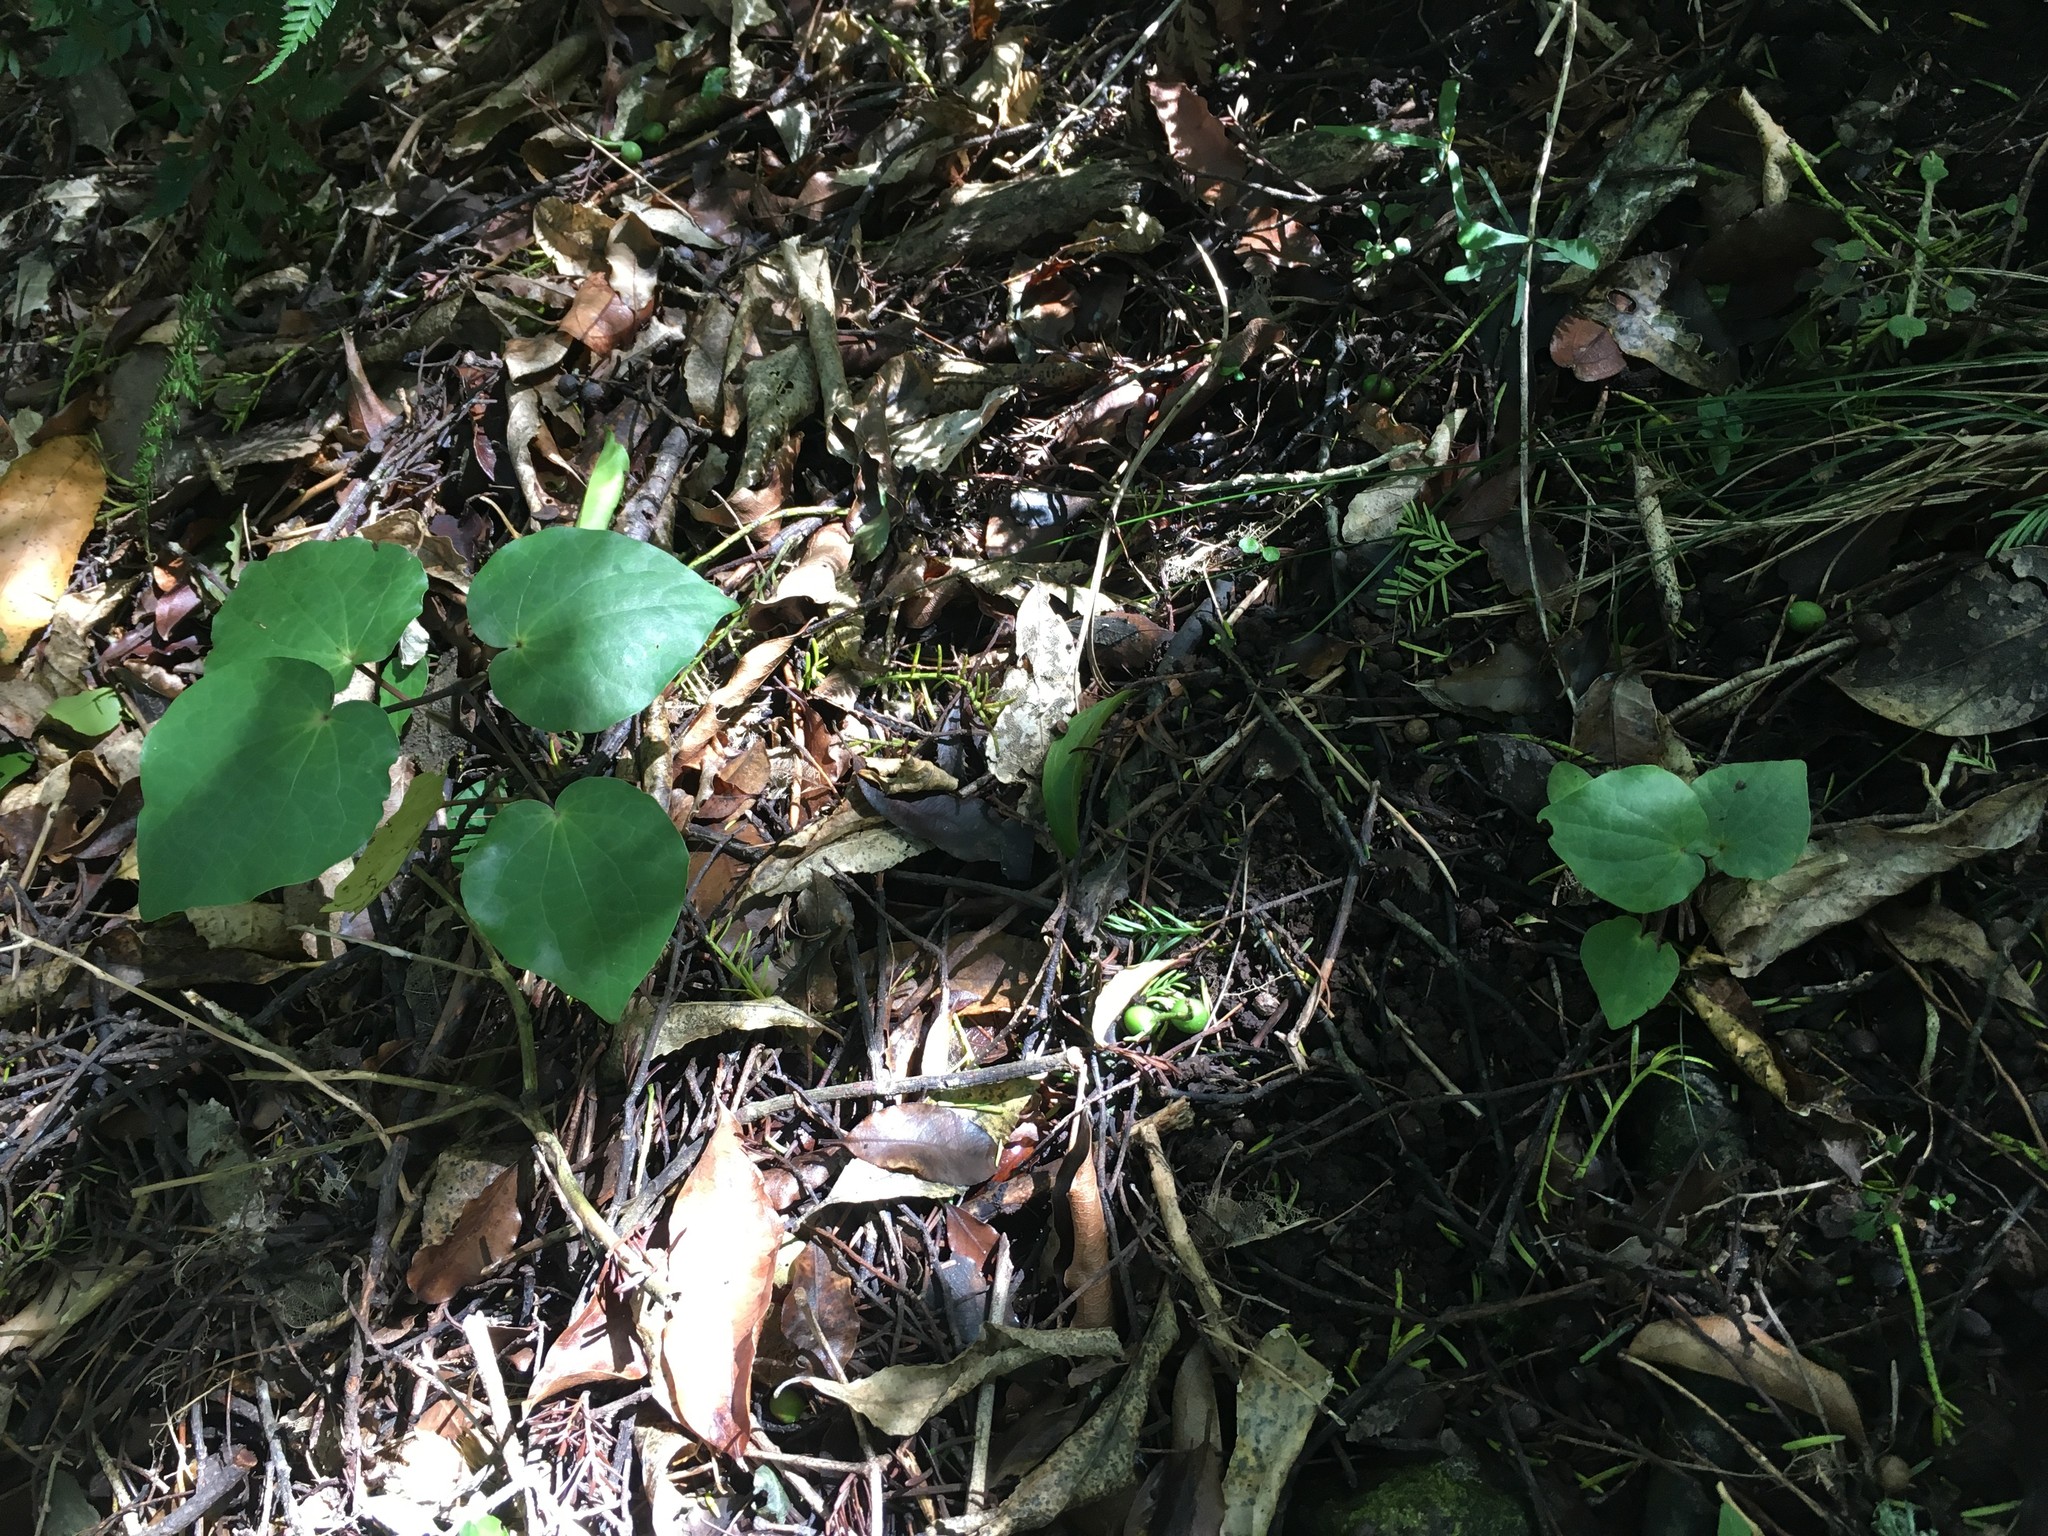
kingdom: Plantae
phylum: Tracheophyta
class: Magnoliopsida
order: Piperales
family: Piperaceae
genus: Macropiper
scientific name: Macropiper excelsum
